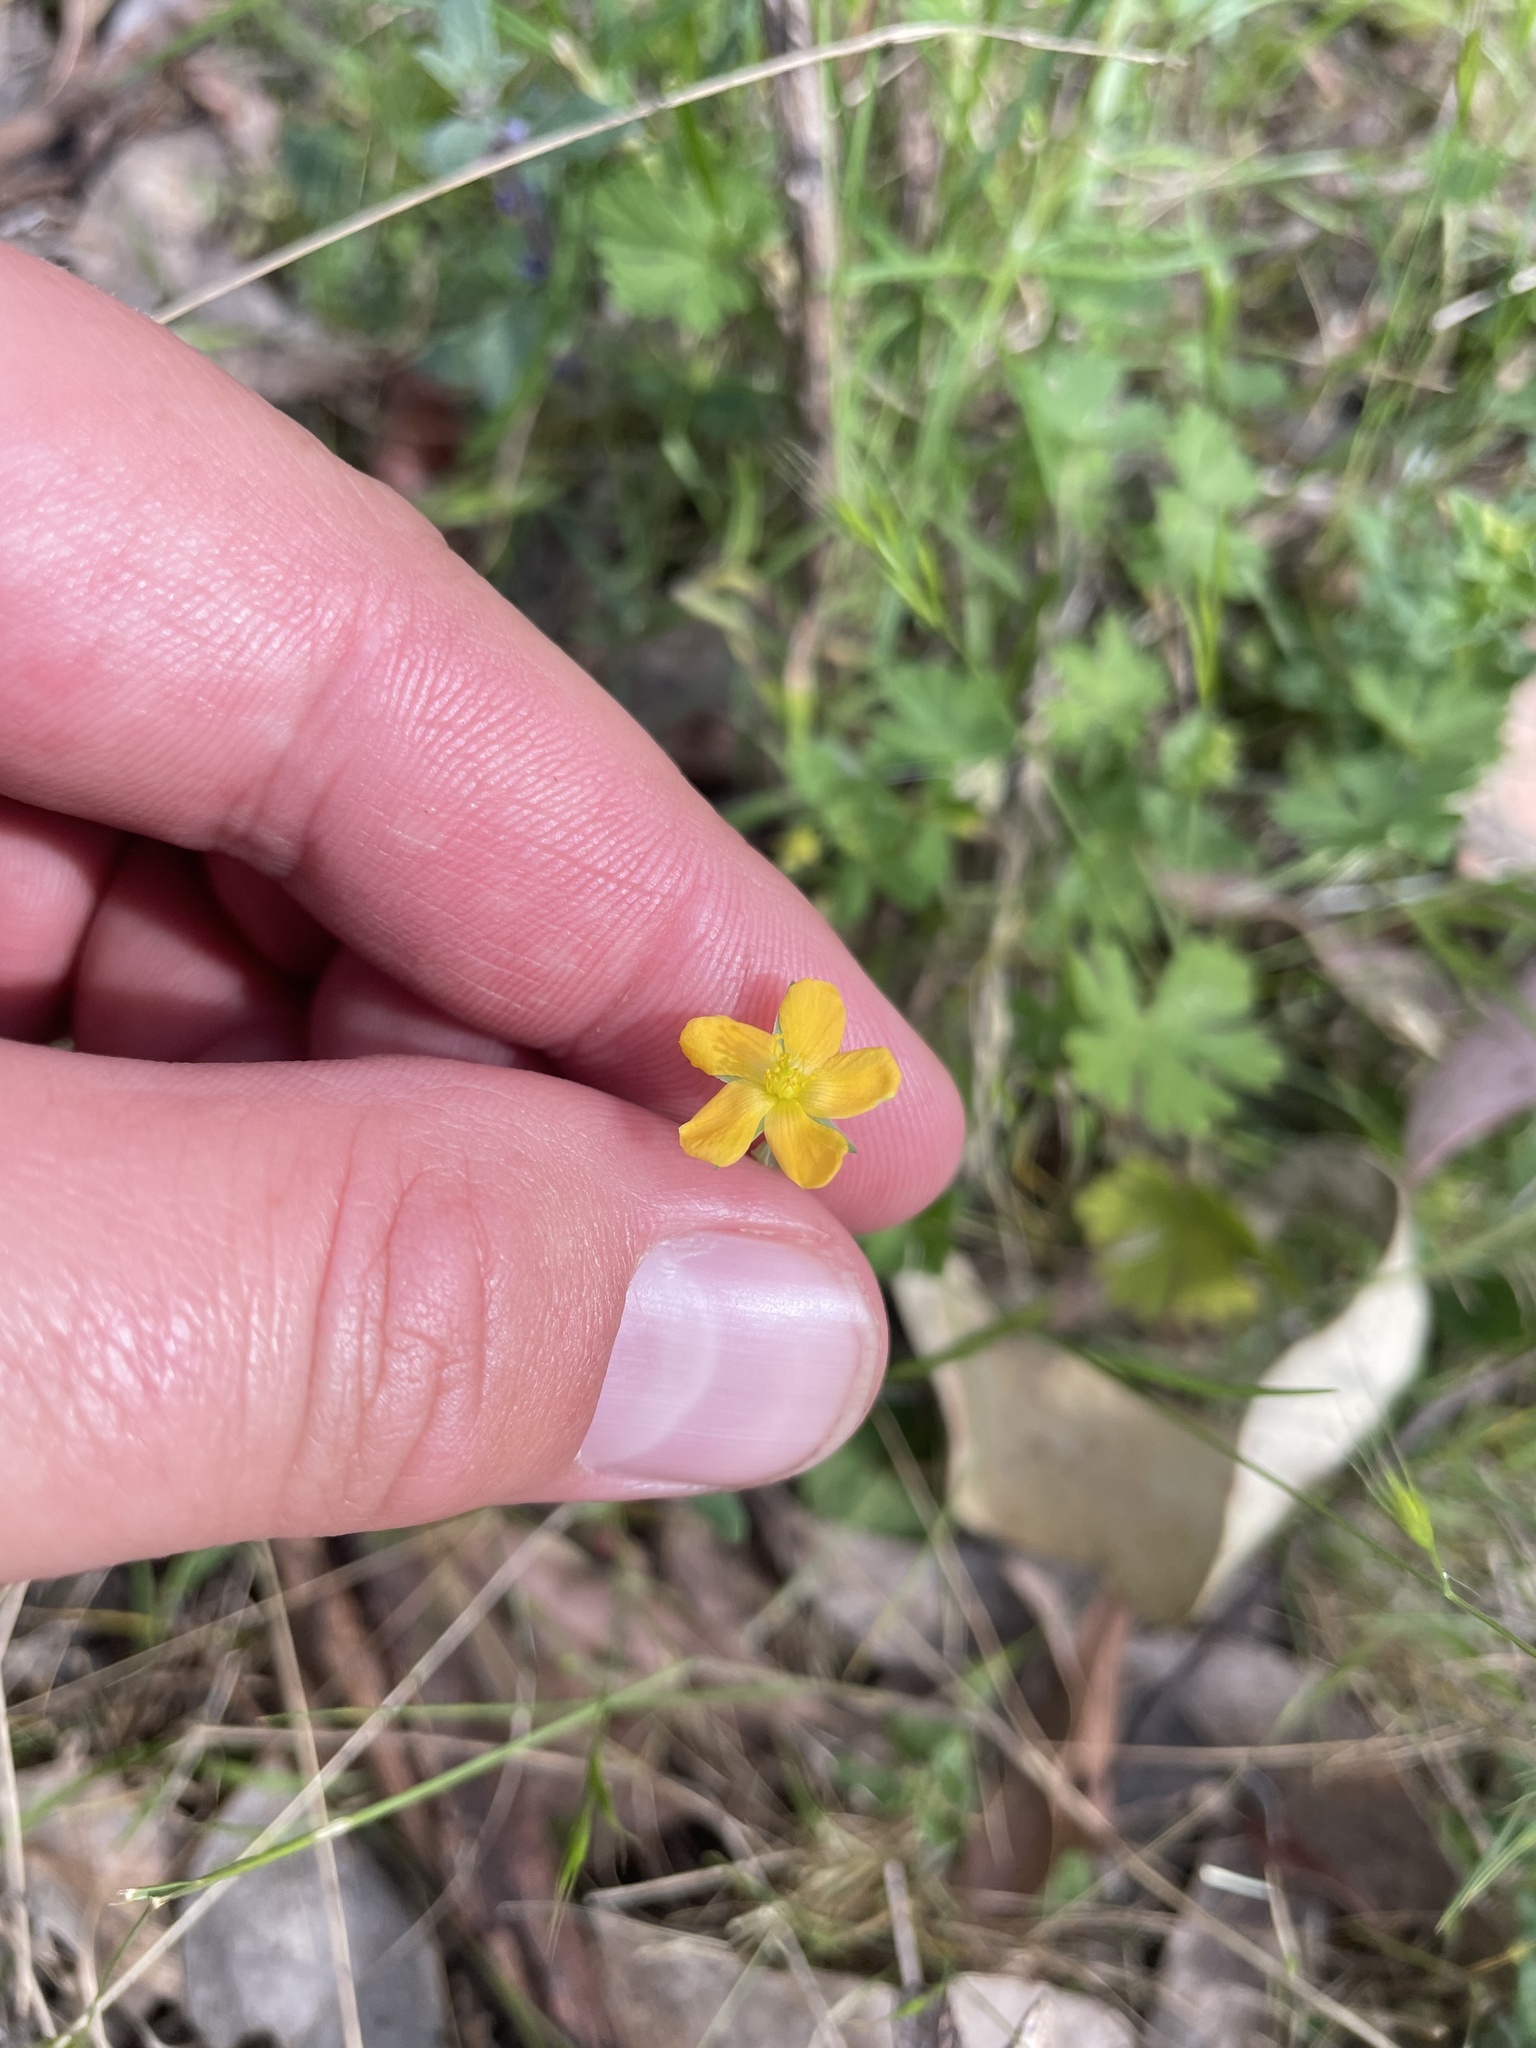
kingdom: Plantae
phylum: Tracheophyta
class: Magnoliopsida
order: Malpighiales
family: Hypericaceae
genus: Hypericum
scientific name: Hypericum gramineum
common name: Grassy st. johnswort
